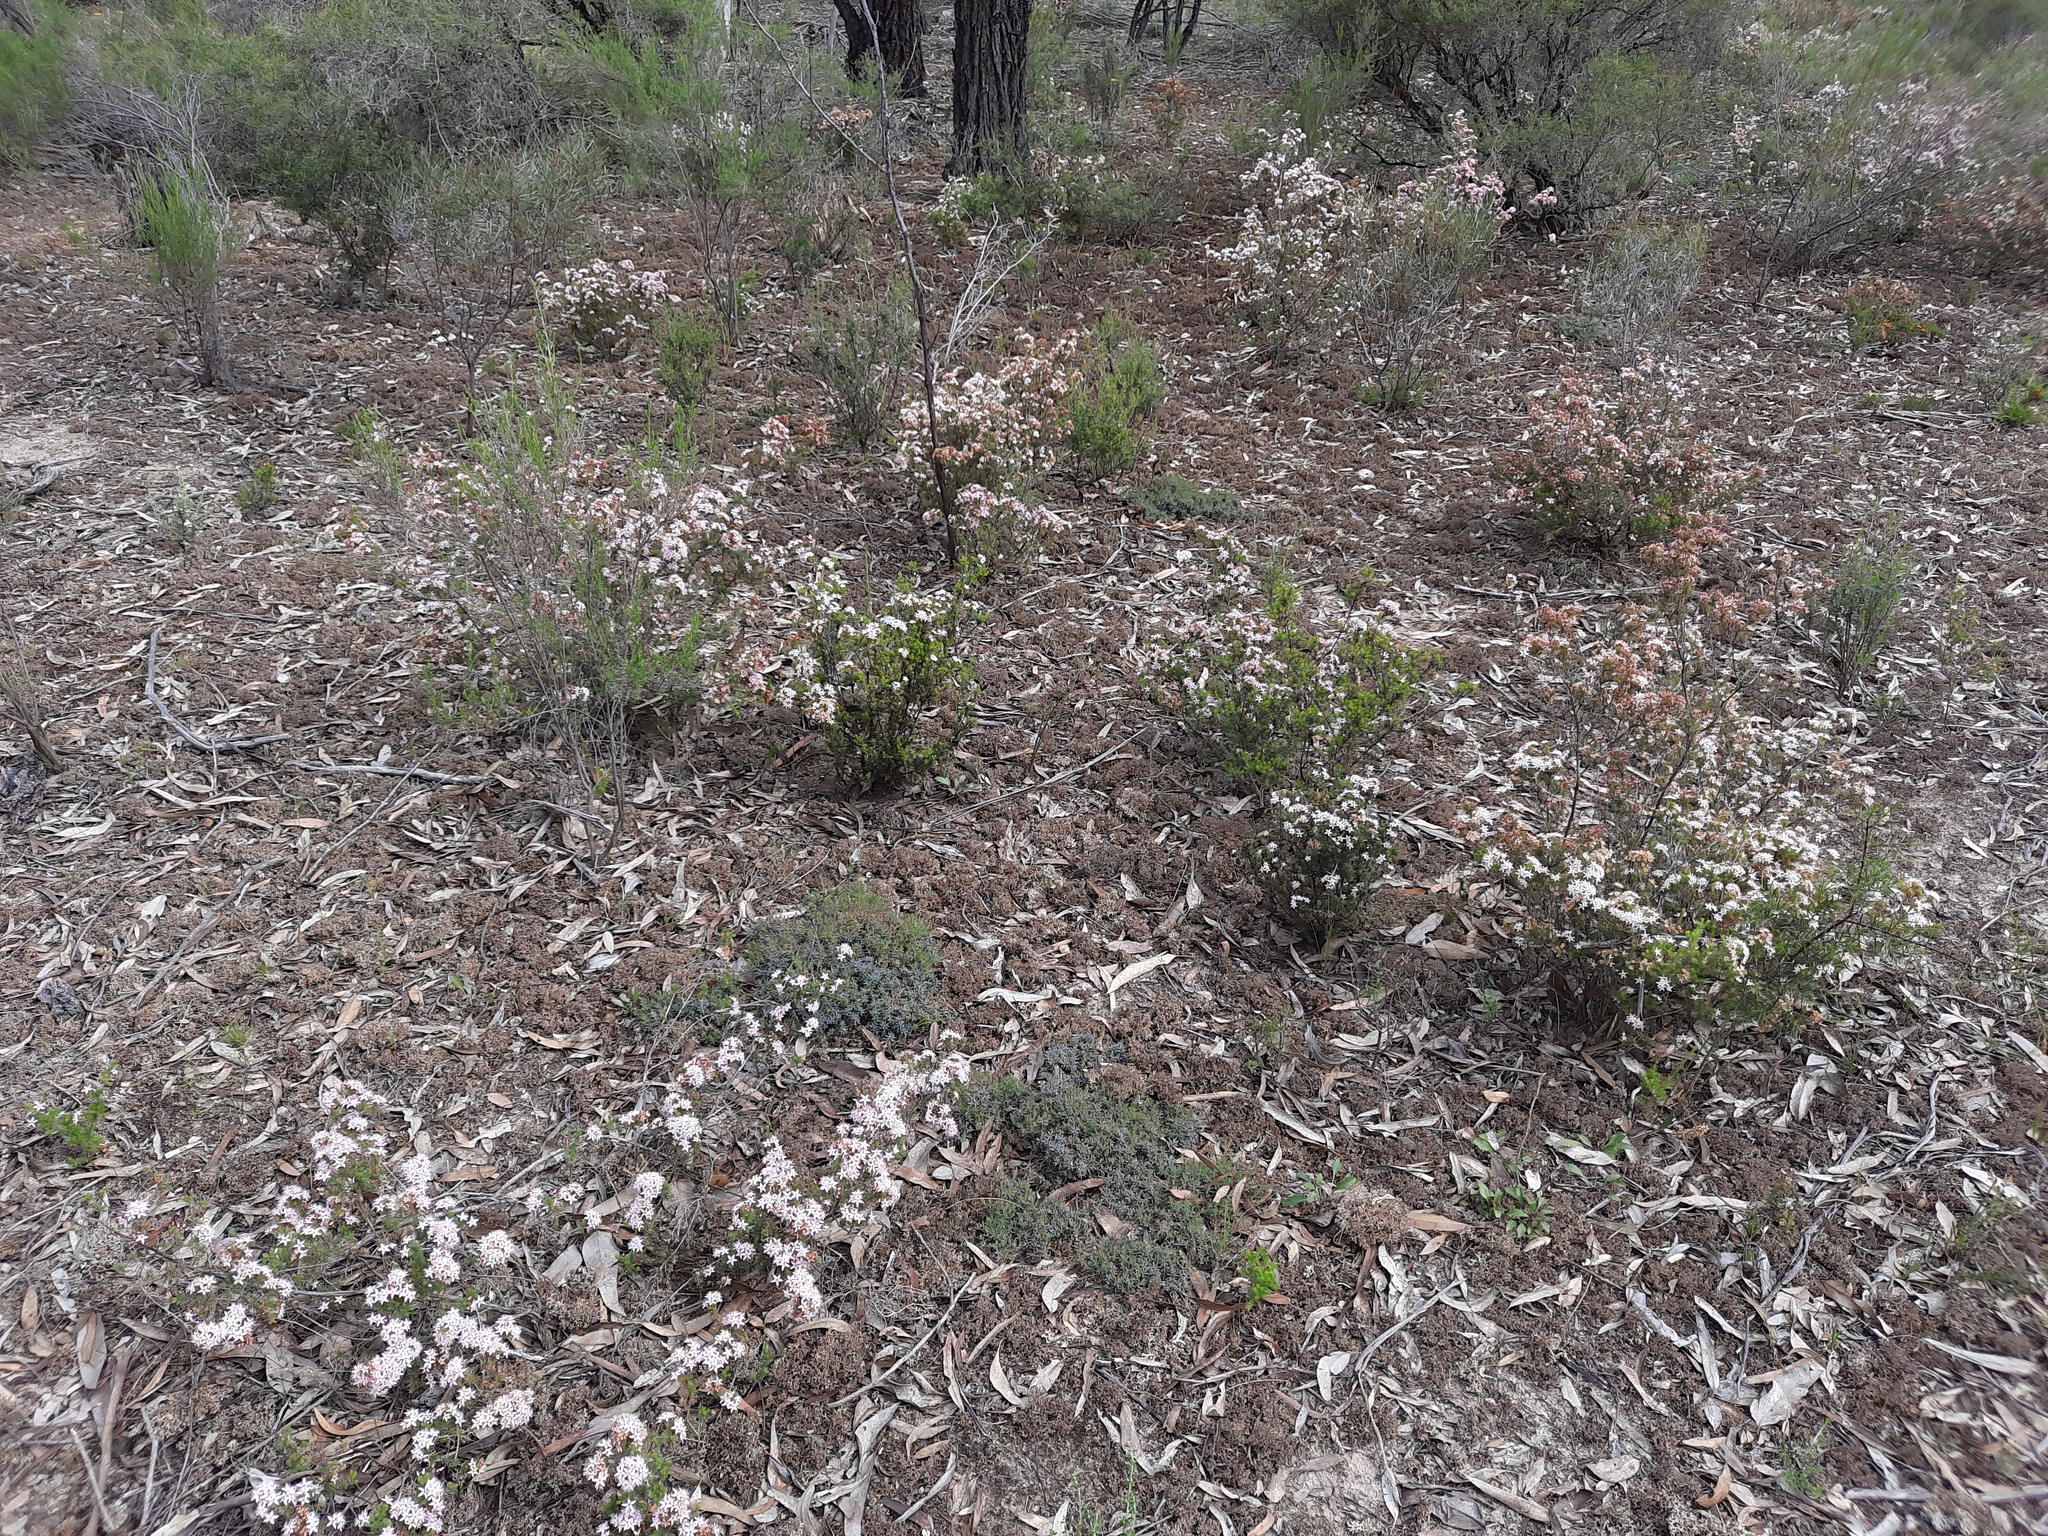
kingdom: Plantae
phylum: Tracheophyta
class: Magnoliopsida
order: Myrtales
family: Myrtaceae
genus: Calytrix
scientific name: Calytrix tetragona
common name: Common fringe myrtle
